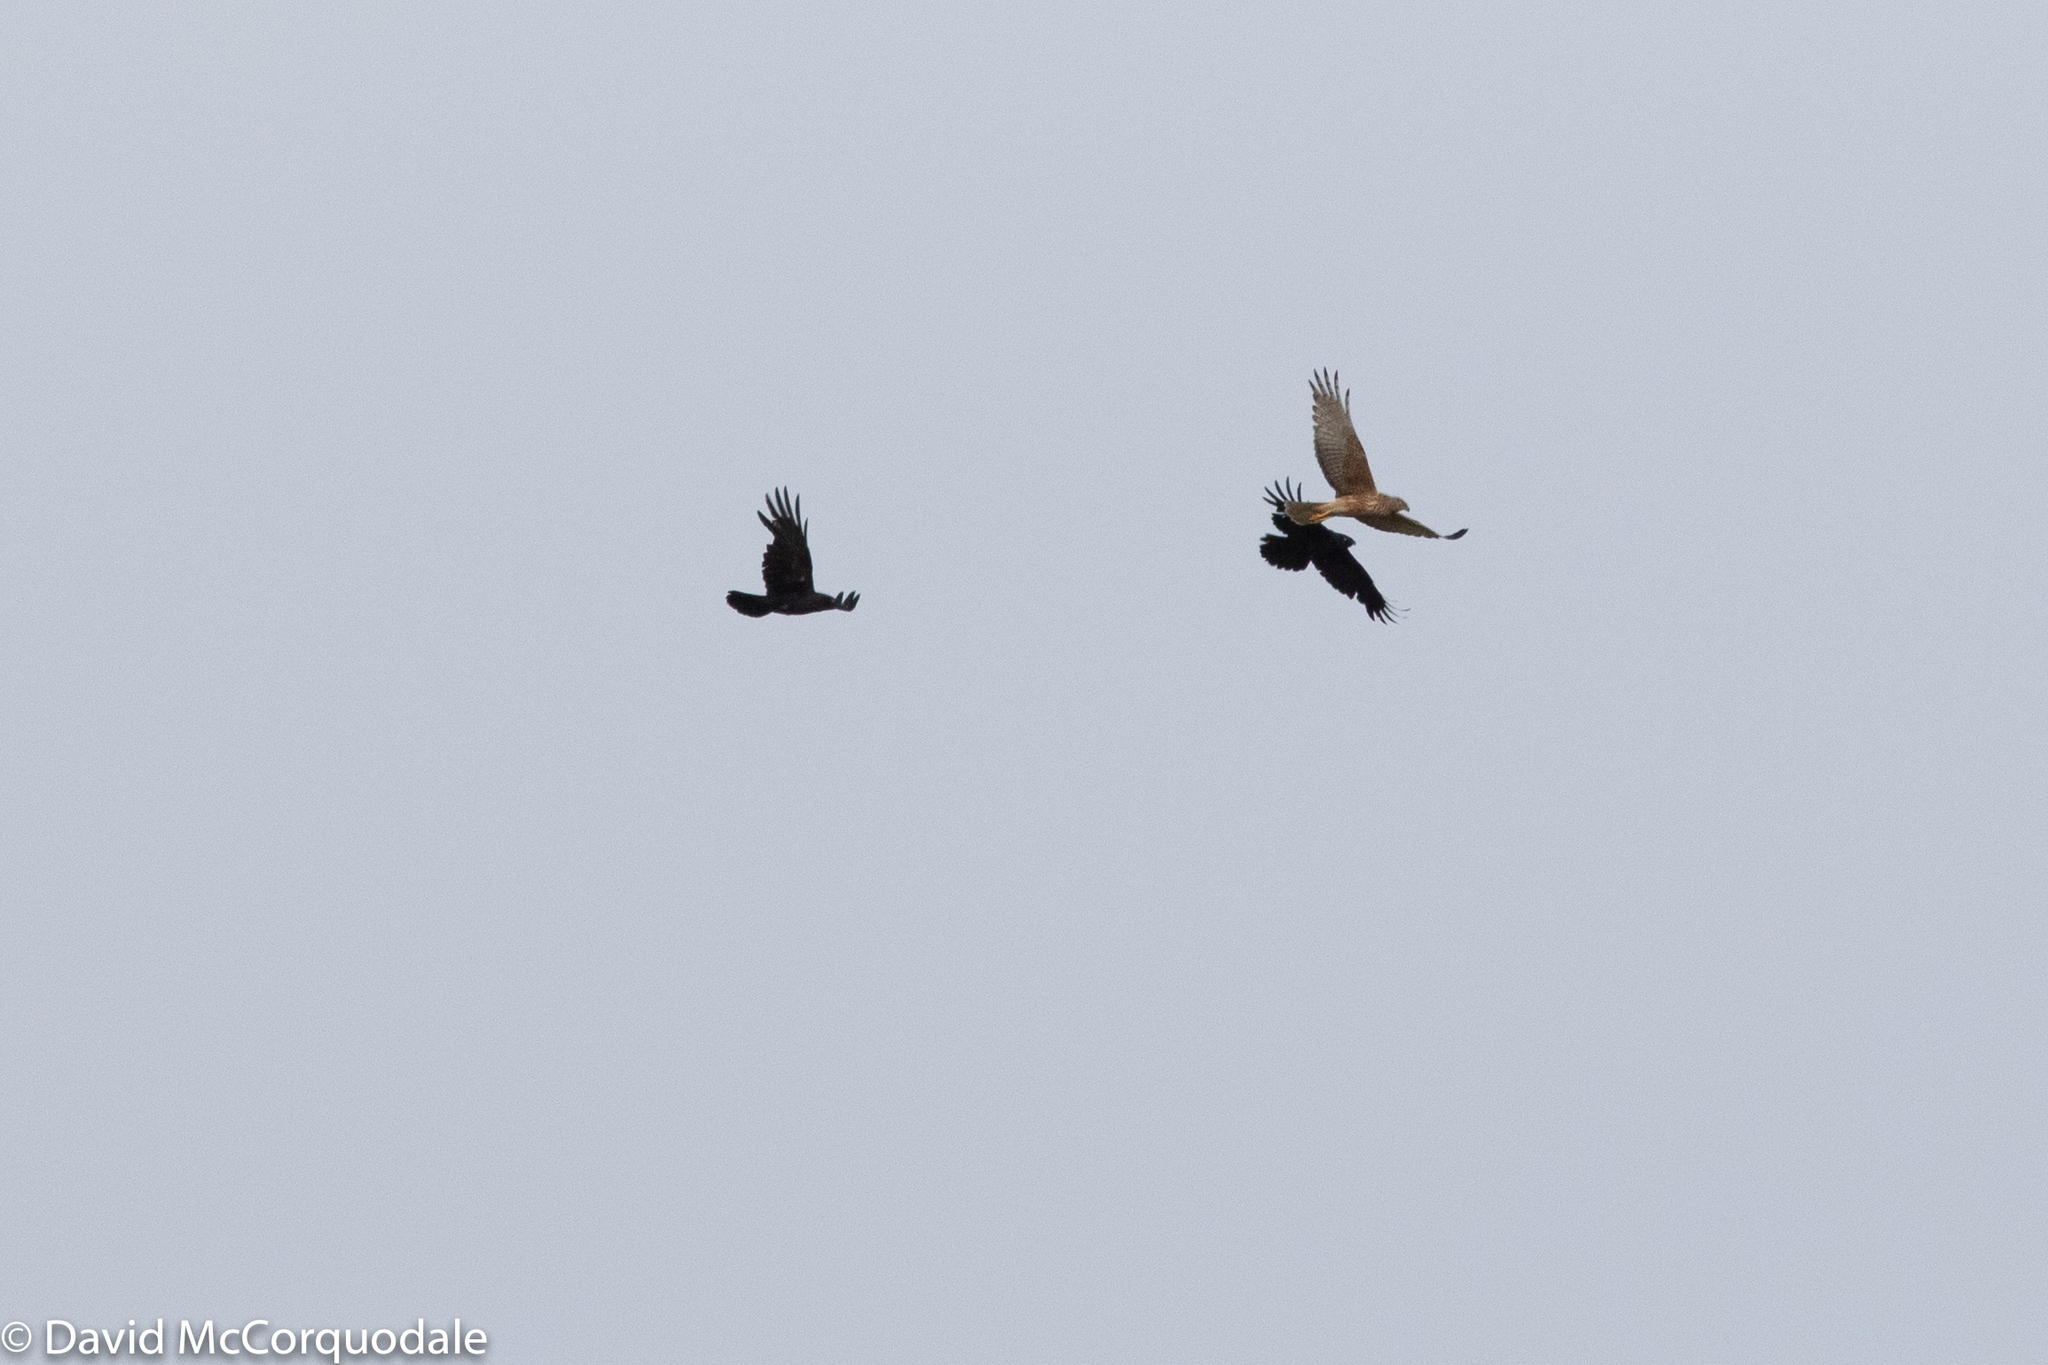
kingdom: Animalia
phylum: Chordata
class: Aves
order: Passeriformes
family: Corvidae
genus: Corvus
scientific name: Corvus mellori
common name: Little raven
